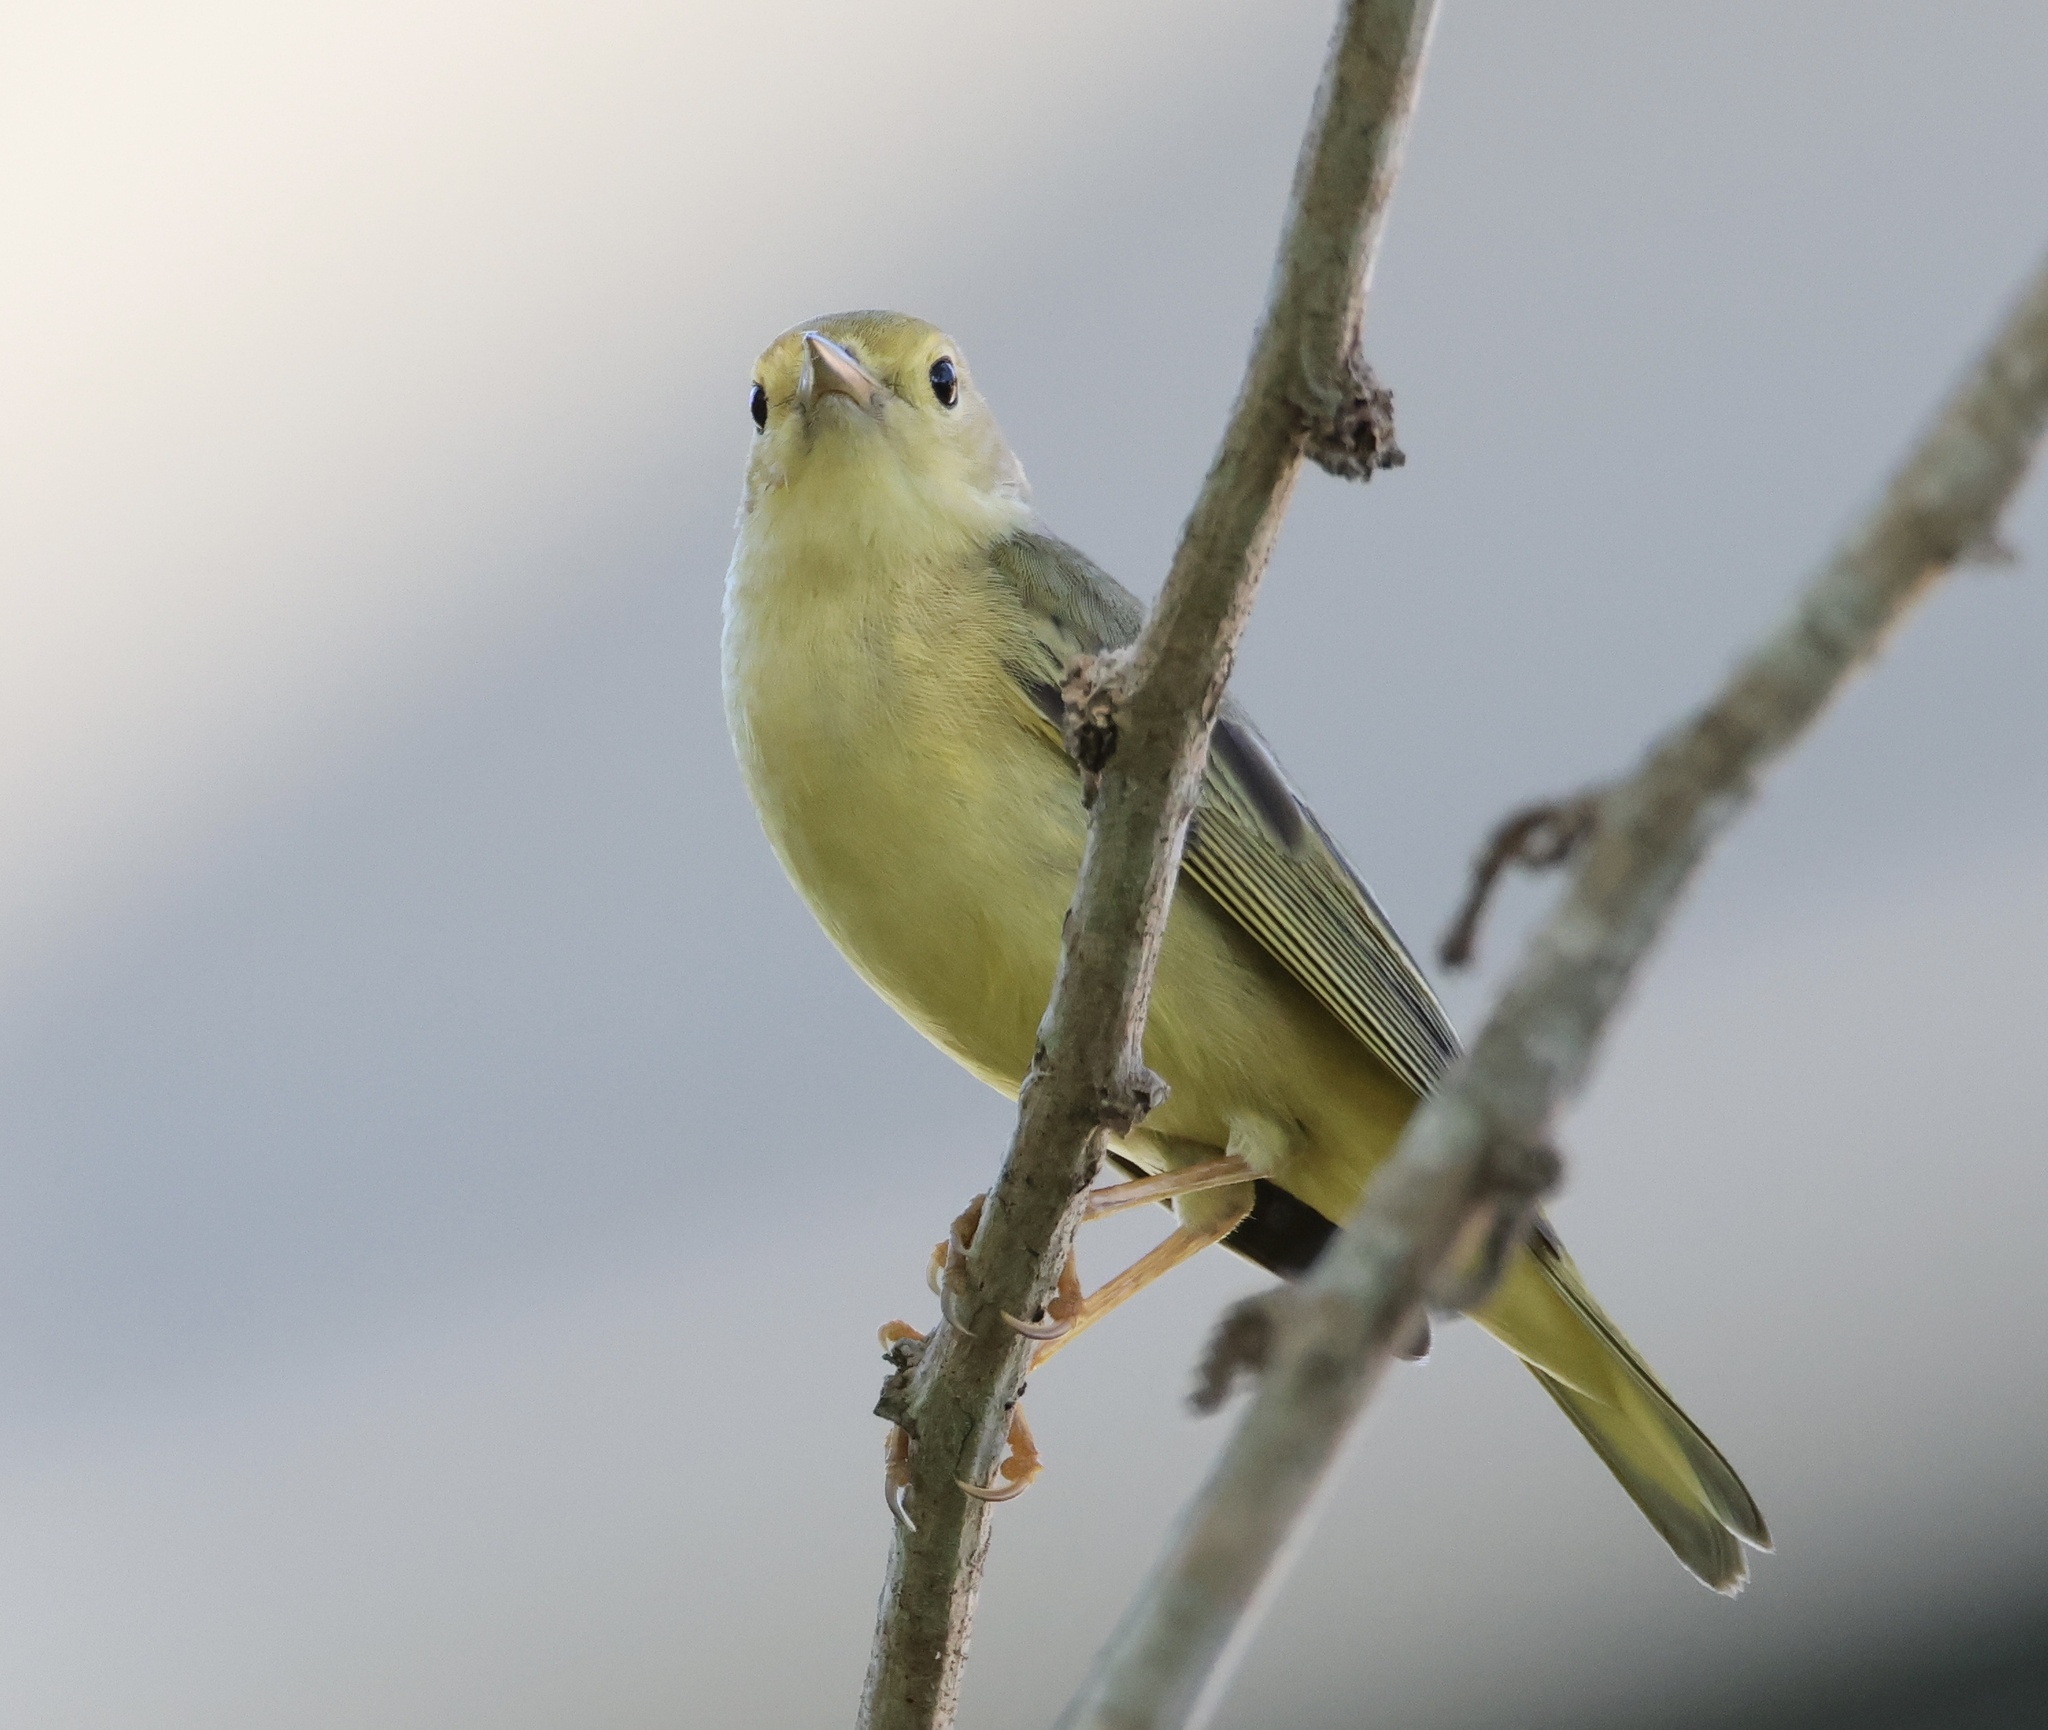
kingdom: Animalia
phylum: Chordata
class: Aves
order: Passeriformes
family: Parulidae
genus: Setophaga
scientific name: Setophaga petechia
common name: Yellow warbler
